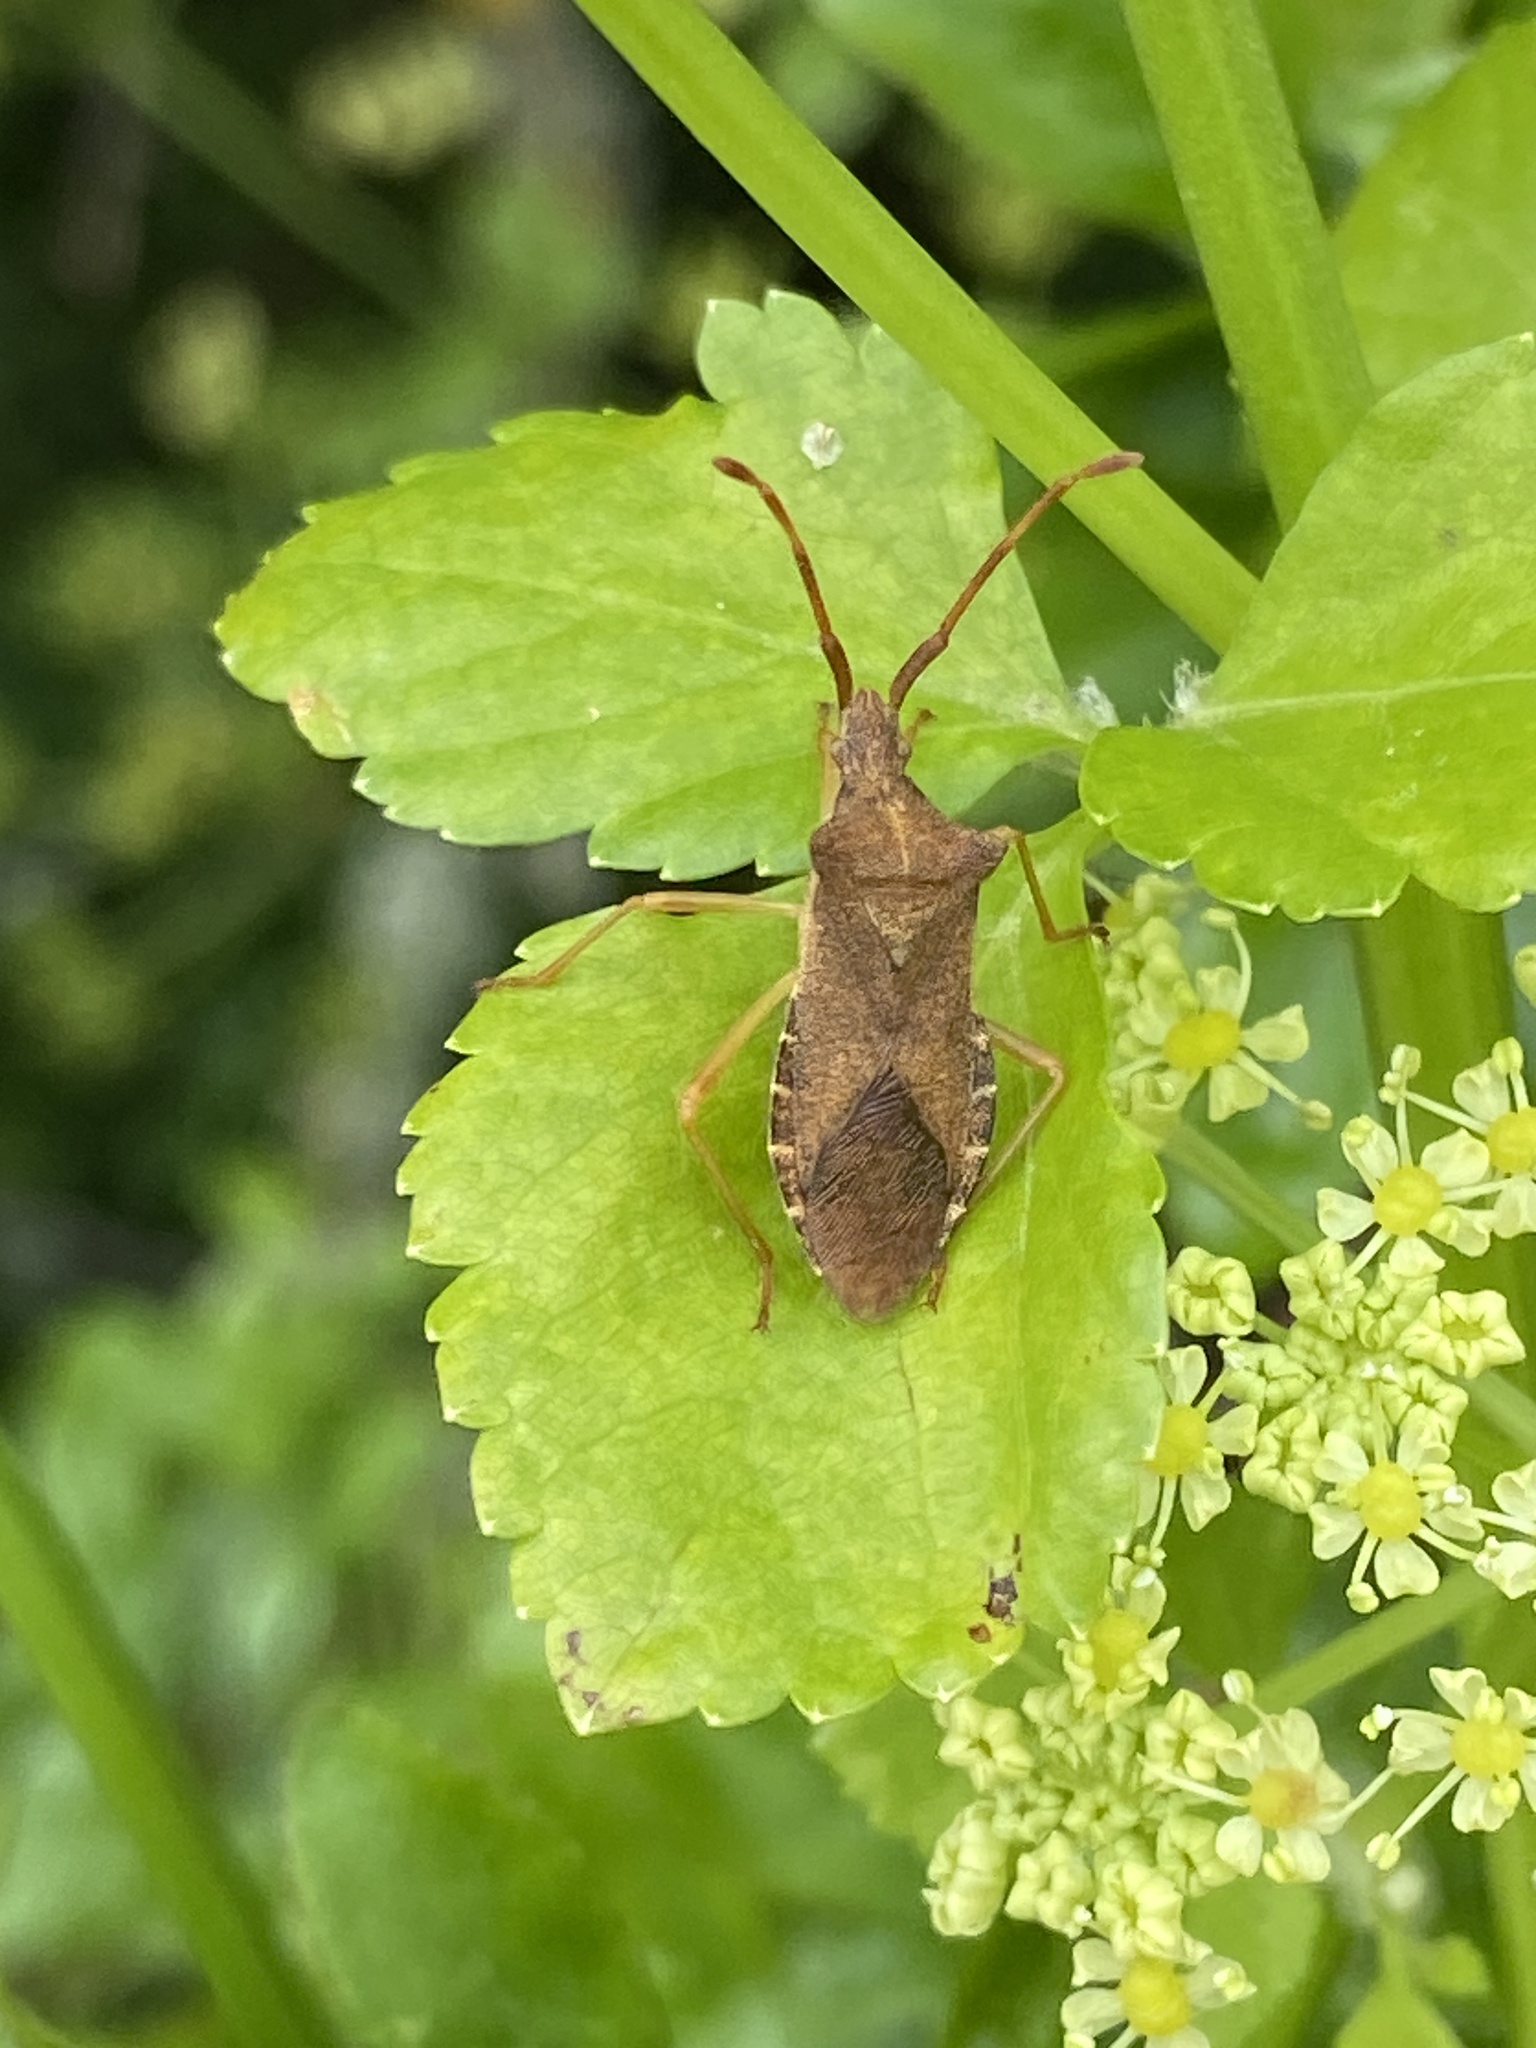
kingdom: Animalia
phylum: Arthropoda
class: Insecta
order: Hemiptera
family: Coreidae
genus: Gonocerus
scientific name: Gonocerus acuteangulatus
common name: Box bug
